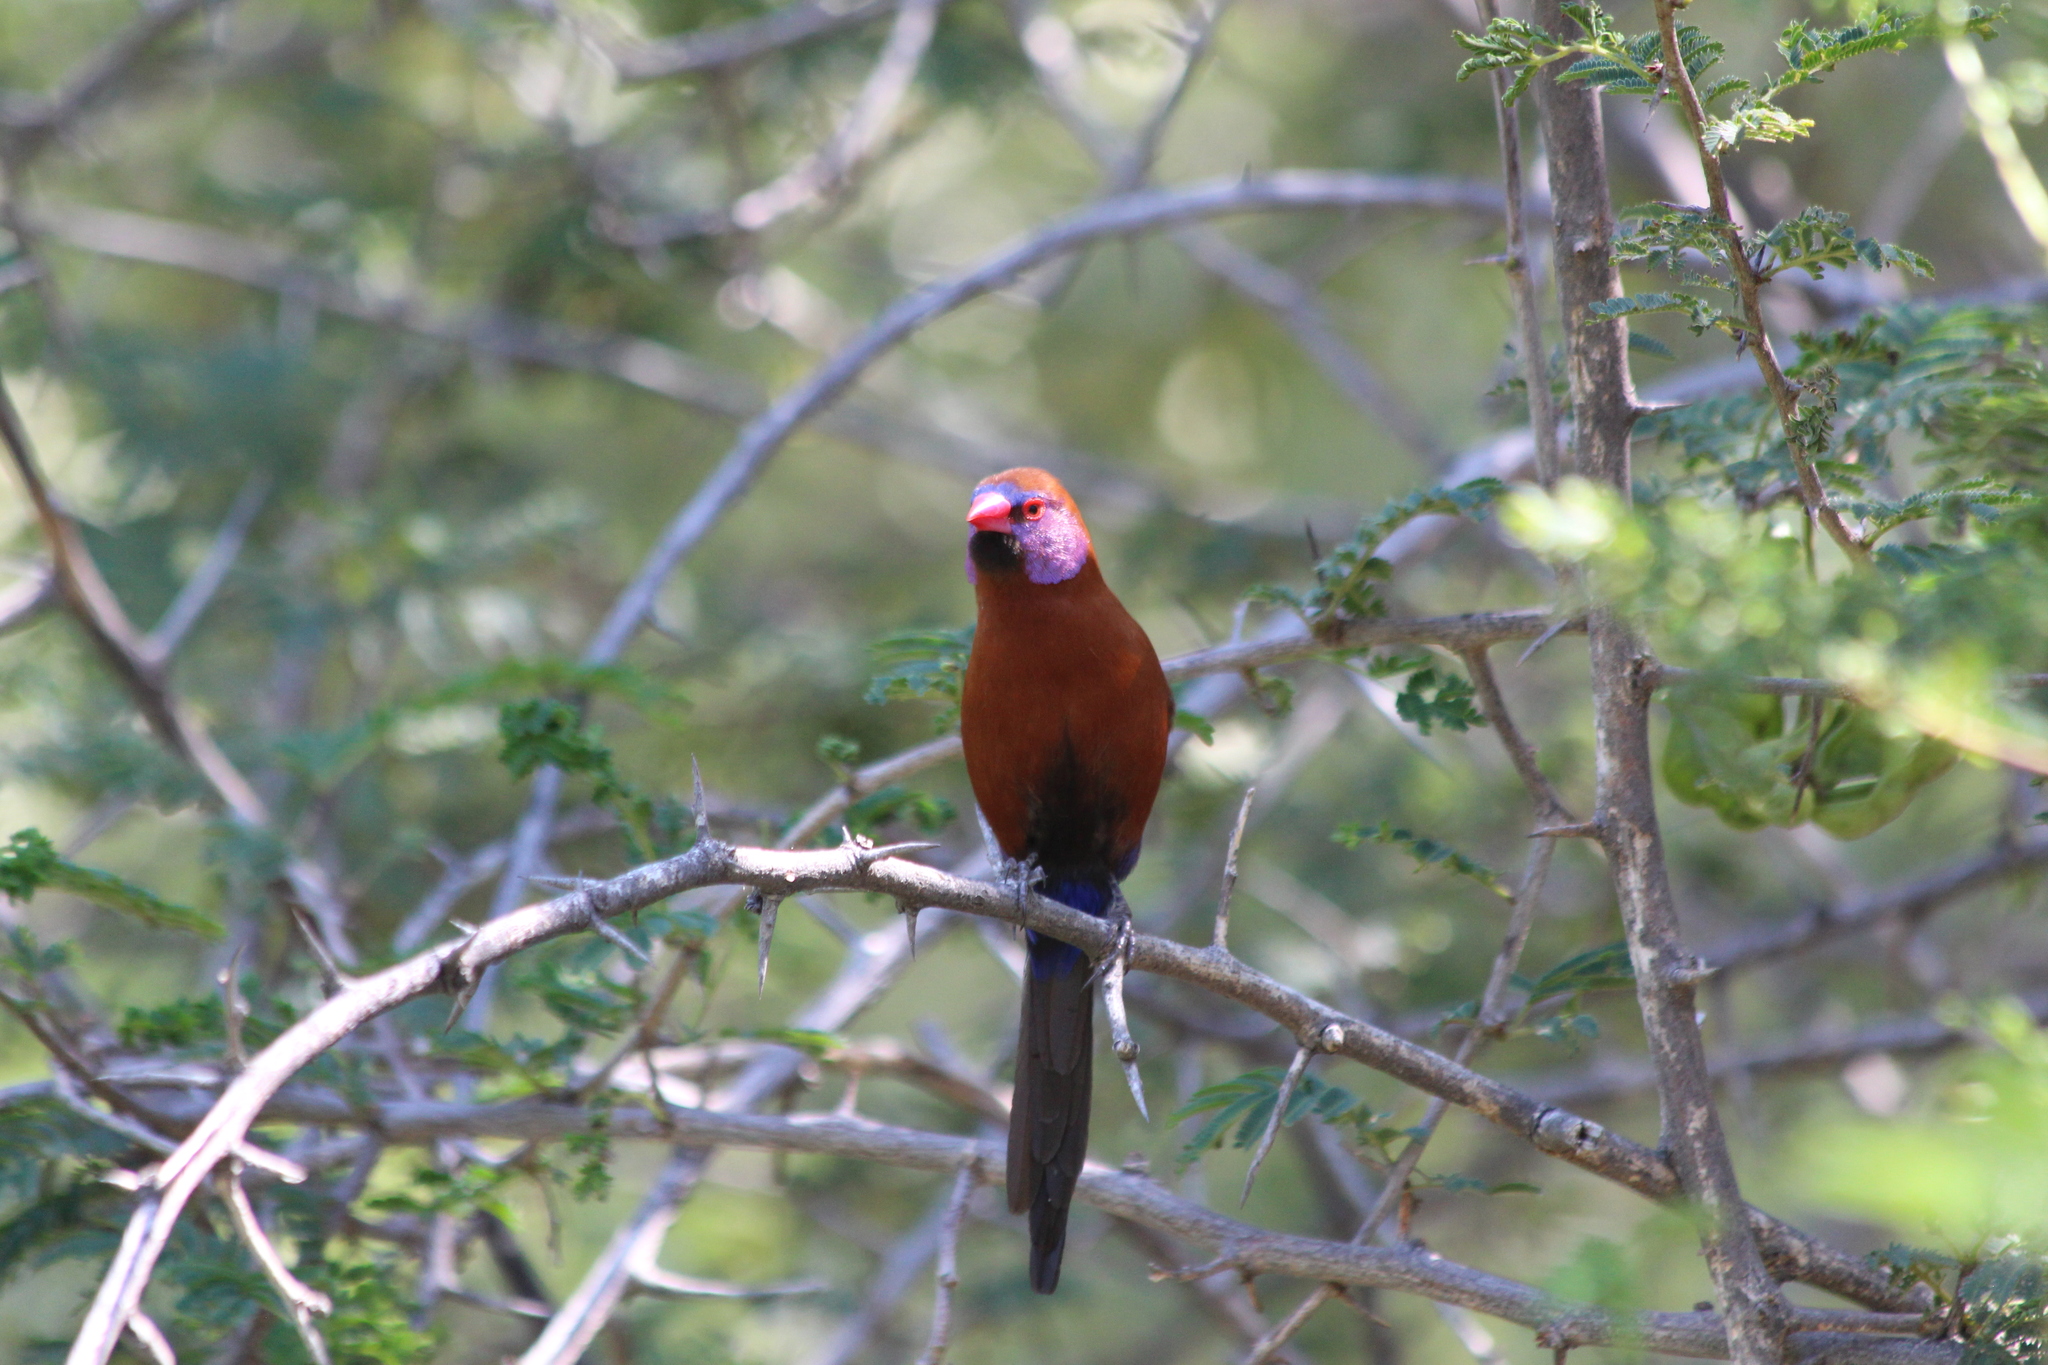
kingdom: Animalia
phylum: Chordata
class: Aves
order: Passeriformes
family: Estrildidae
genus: Uraeginthus
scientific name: Uraeginthus granatinus
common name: Violet-eared waxbill
